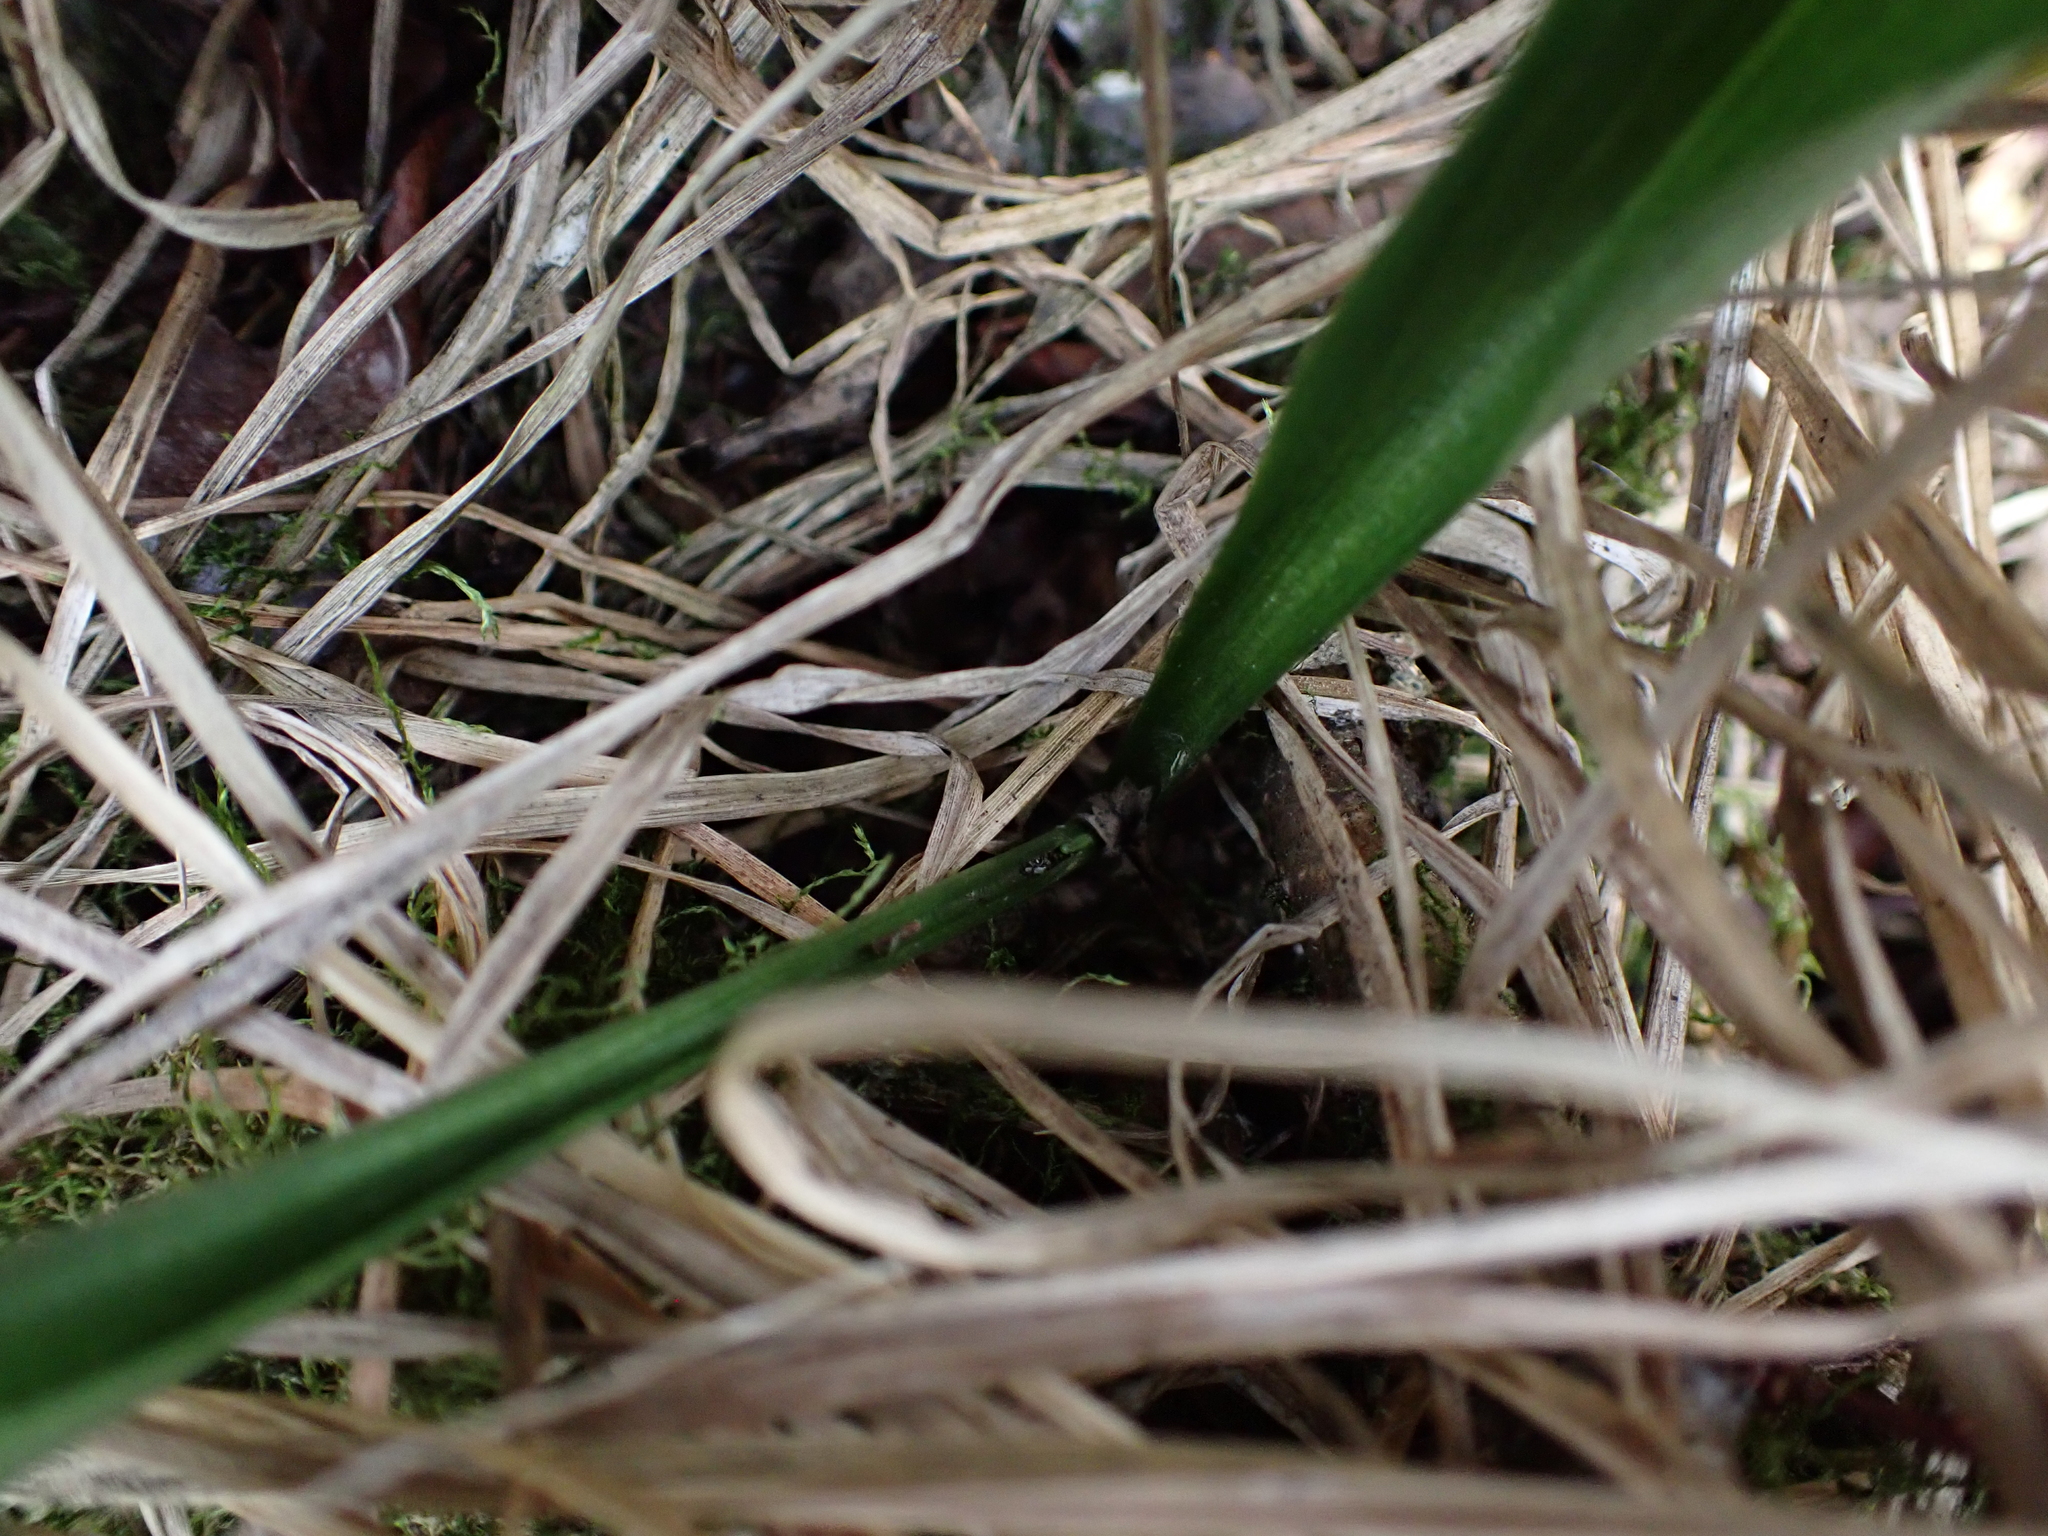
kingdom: Plantae
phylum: Tracheophyta
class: Liliopsida
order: Asparagales
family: Asparagaceae
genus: Maianthemum
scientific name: Maianthemum trifolium
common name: Swamp false solomon's seal
